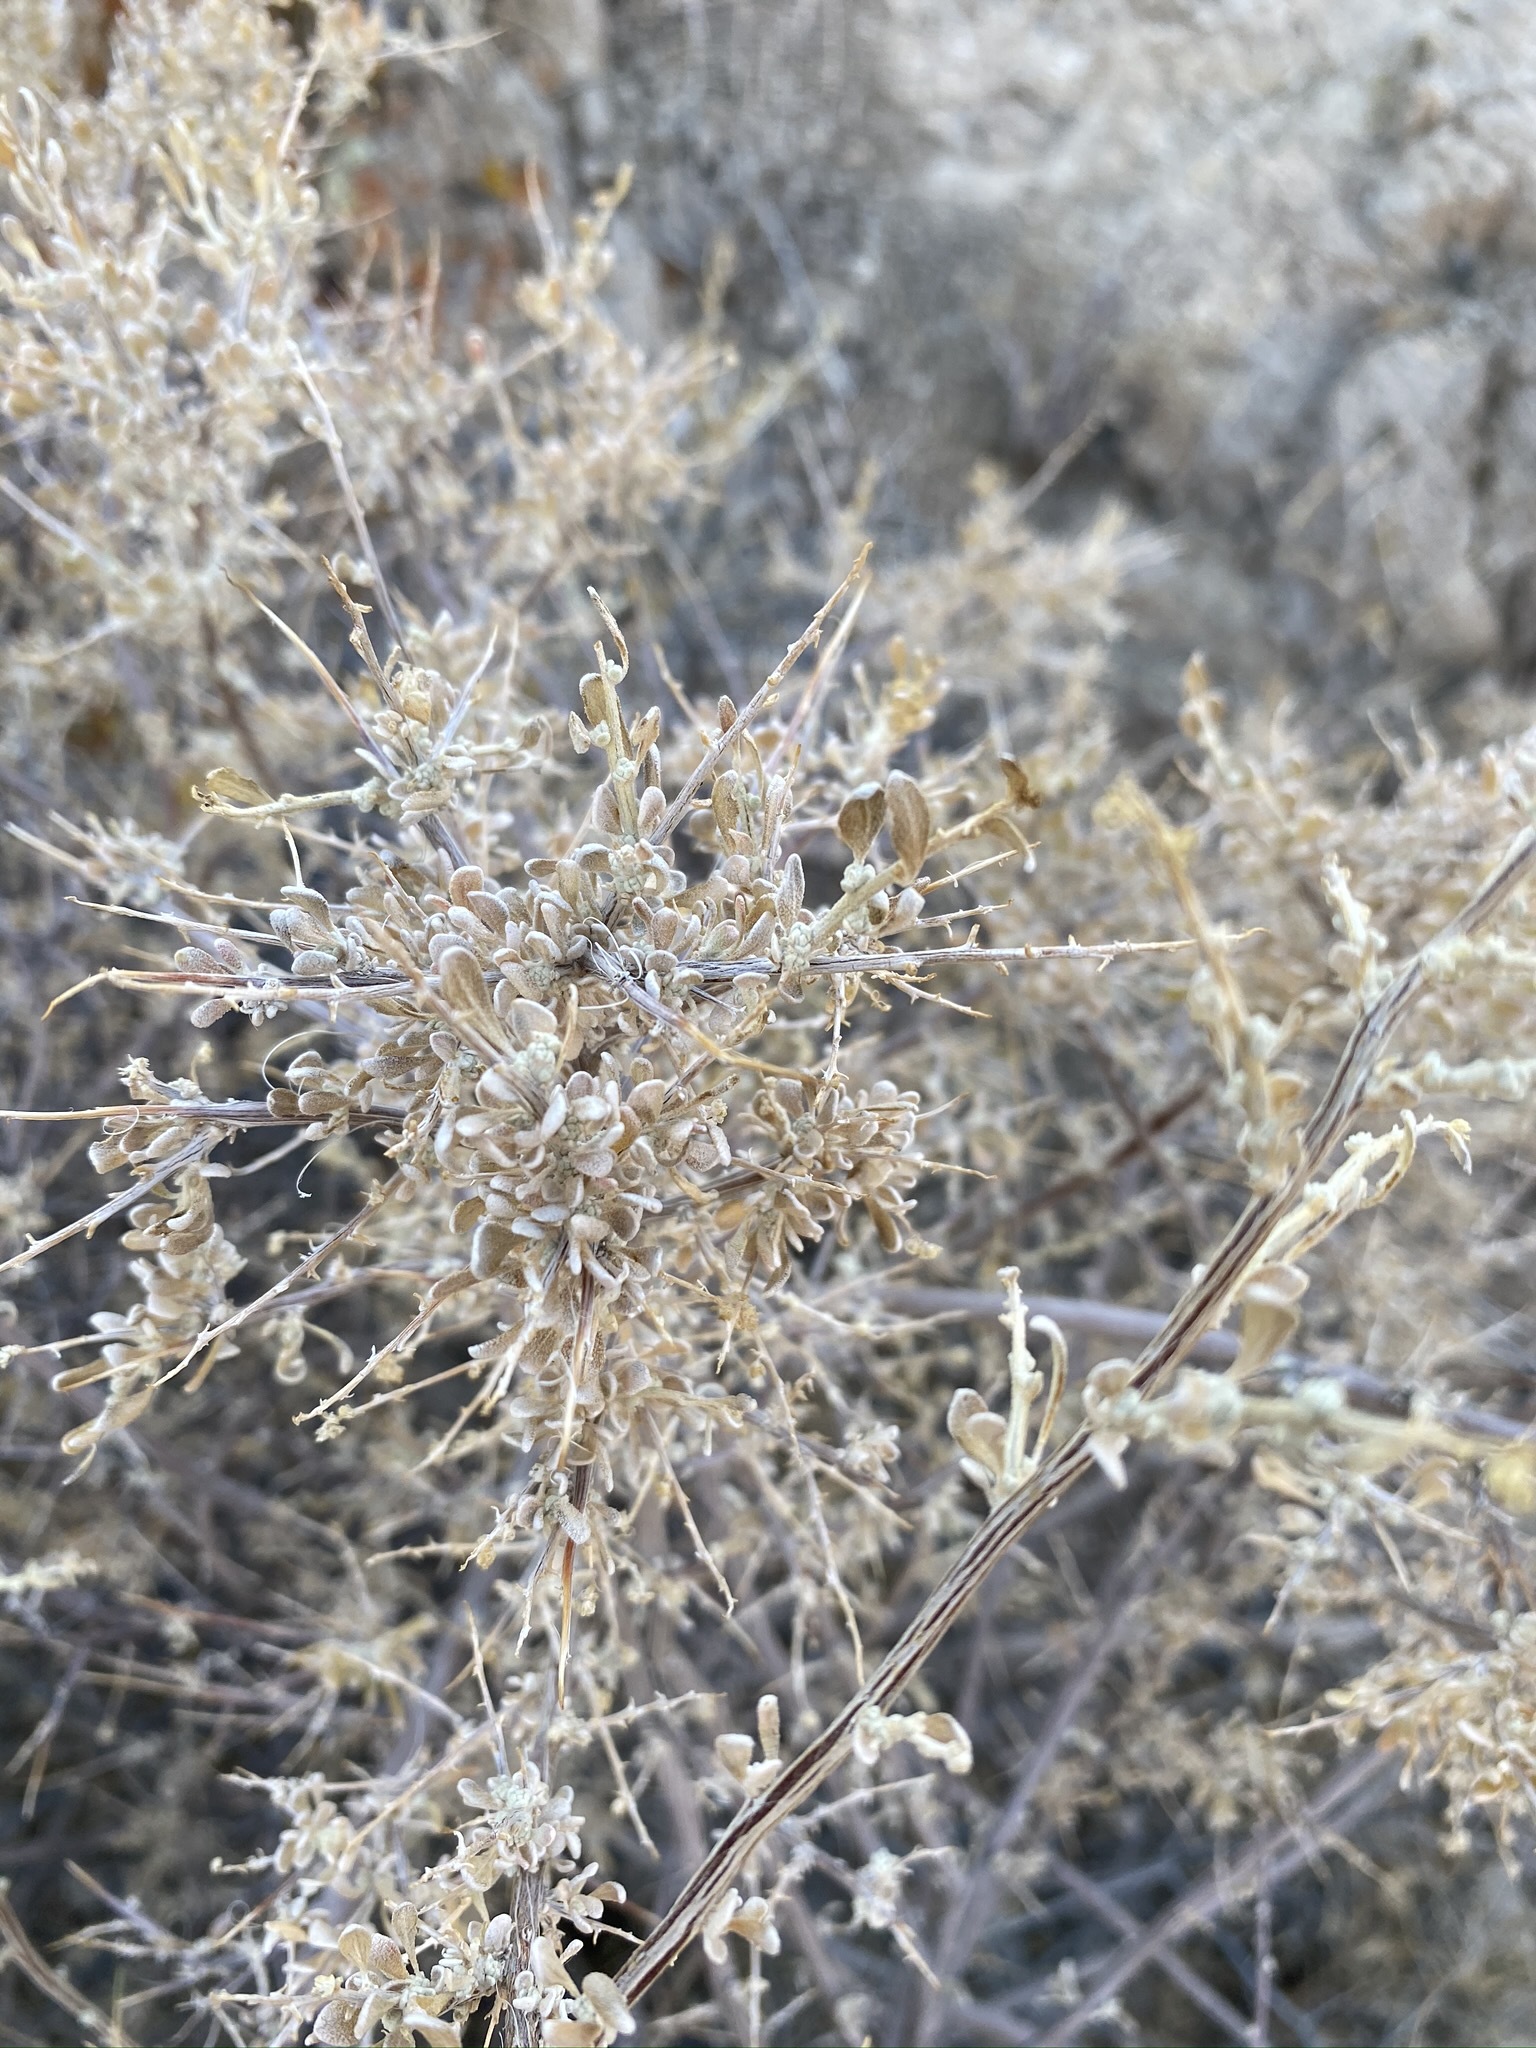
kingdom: Plantae
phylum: Tracheophyta
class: Magnoliopsida
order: Caryophyllales
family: Amaranthaceae
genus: Grayia
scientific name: Grayia spinosa
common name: Spiny hopsage
